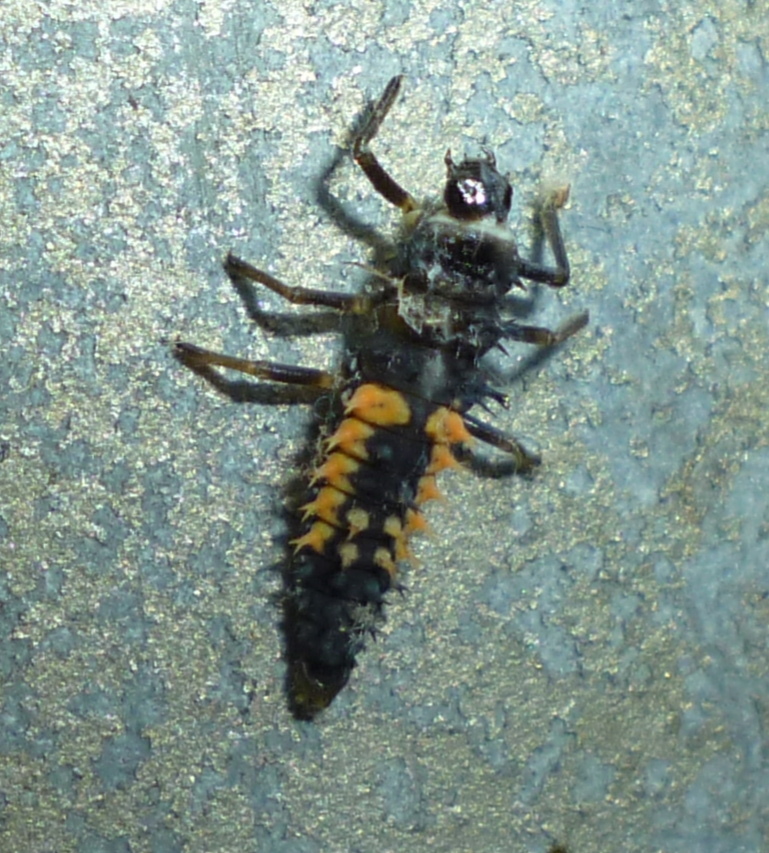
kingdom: Animalia
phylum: Arthropoda
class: Insecta
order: Coleoptera
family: Coccinellidae
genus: Harmonia
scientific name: Harmonia axyridis
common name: Harlequin ladybird
